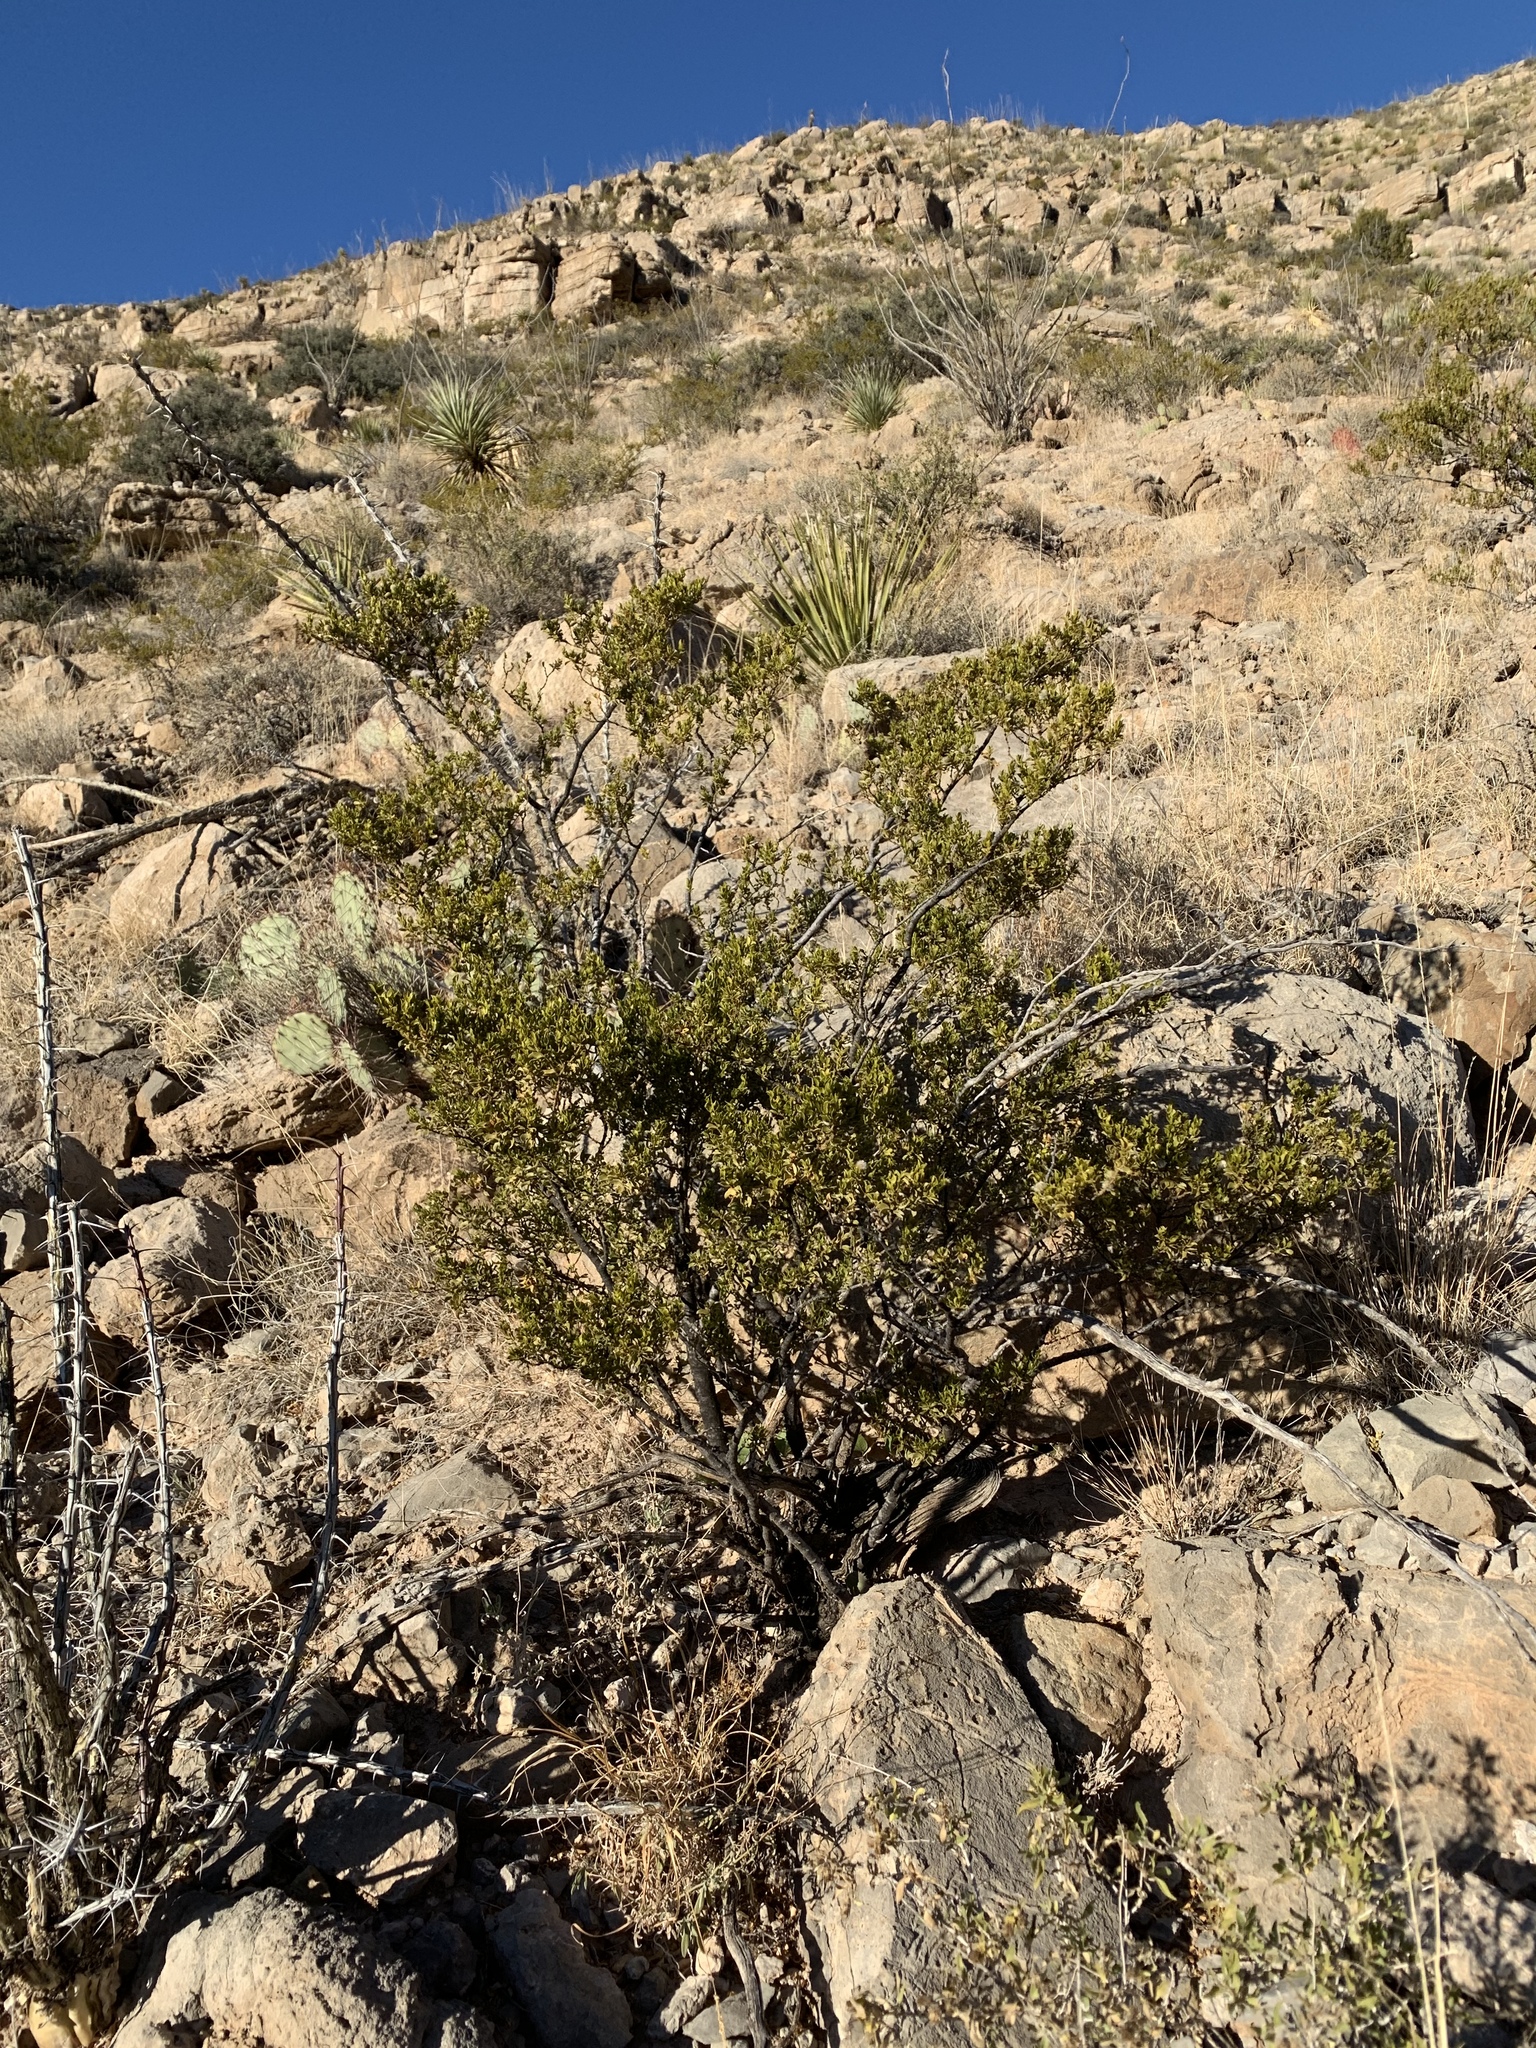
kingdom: Plantae
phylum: Tracheophyta
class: Magnoliopsida
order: Zygophyllales
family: Zygophyllaceae
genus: Larrea
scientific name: Larrea tridentata
